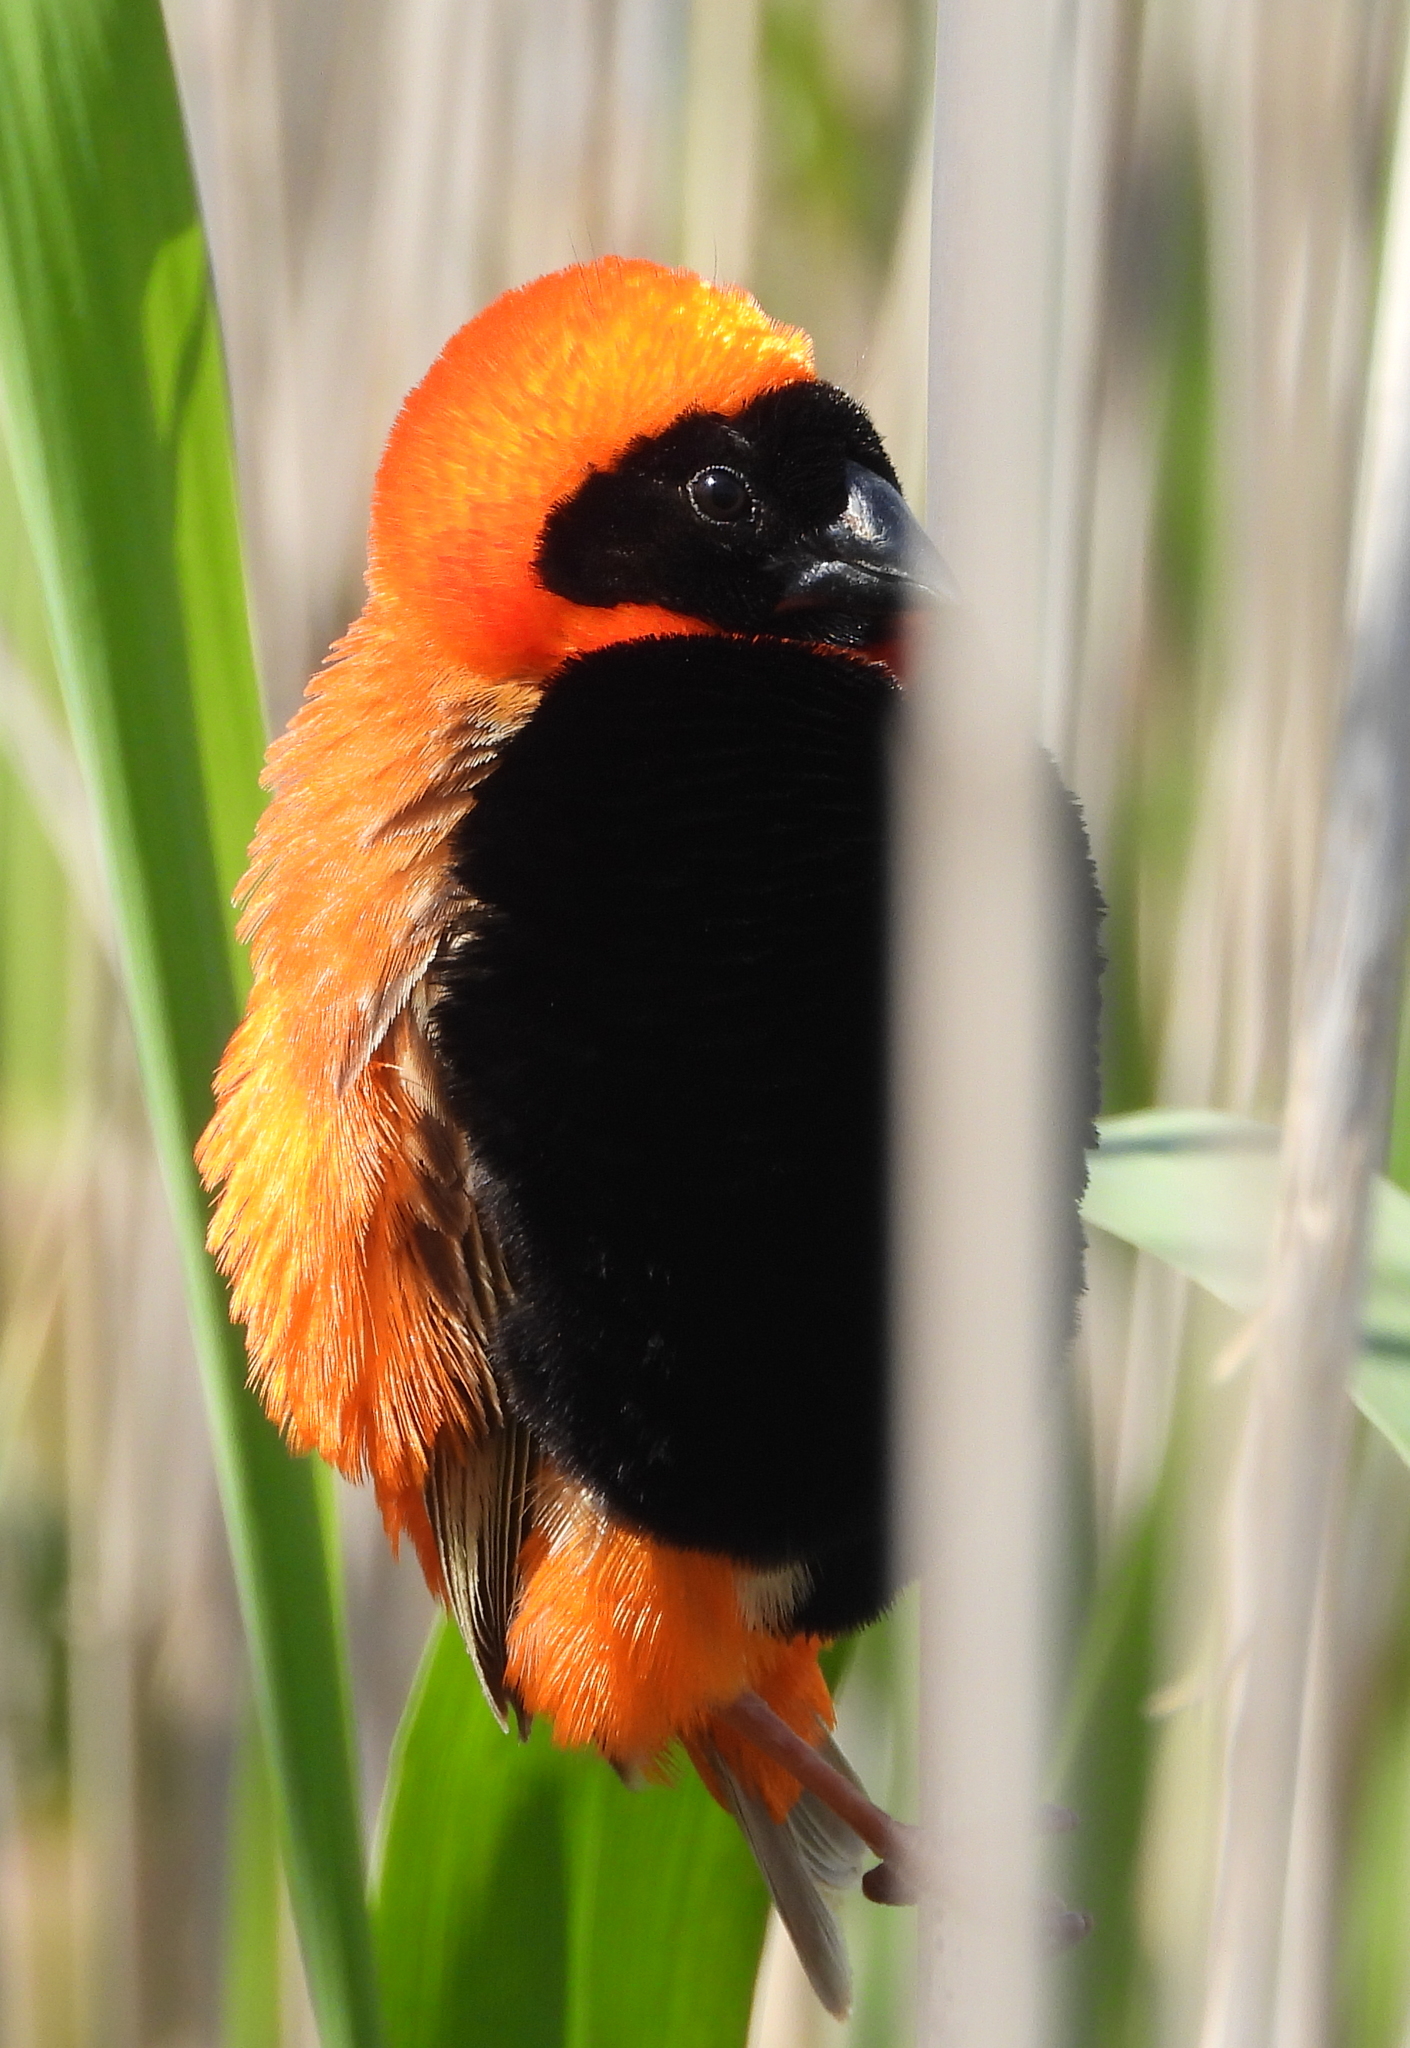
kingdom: Animalia
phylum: Chordata
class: Aves
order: Passeriformes
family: Ploceidae
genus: Euplectes
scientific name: Euplectes orix
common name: Southern red bishop
